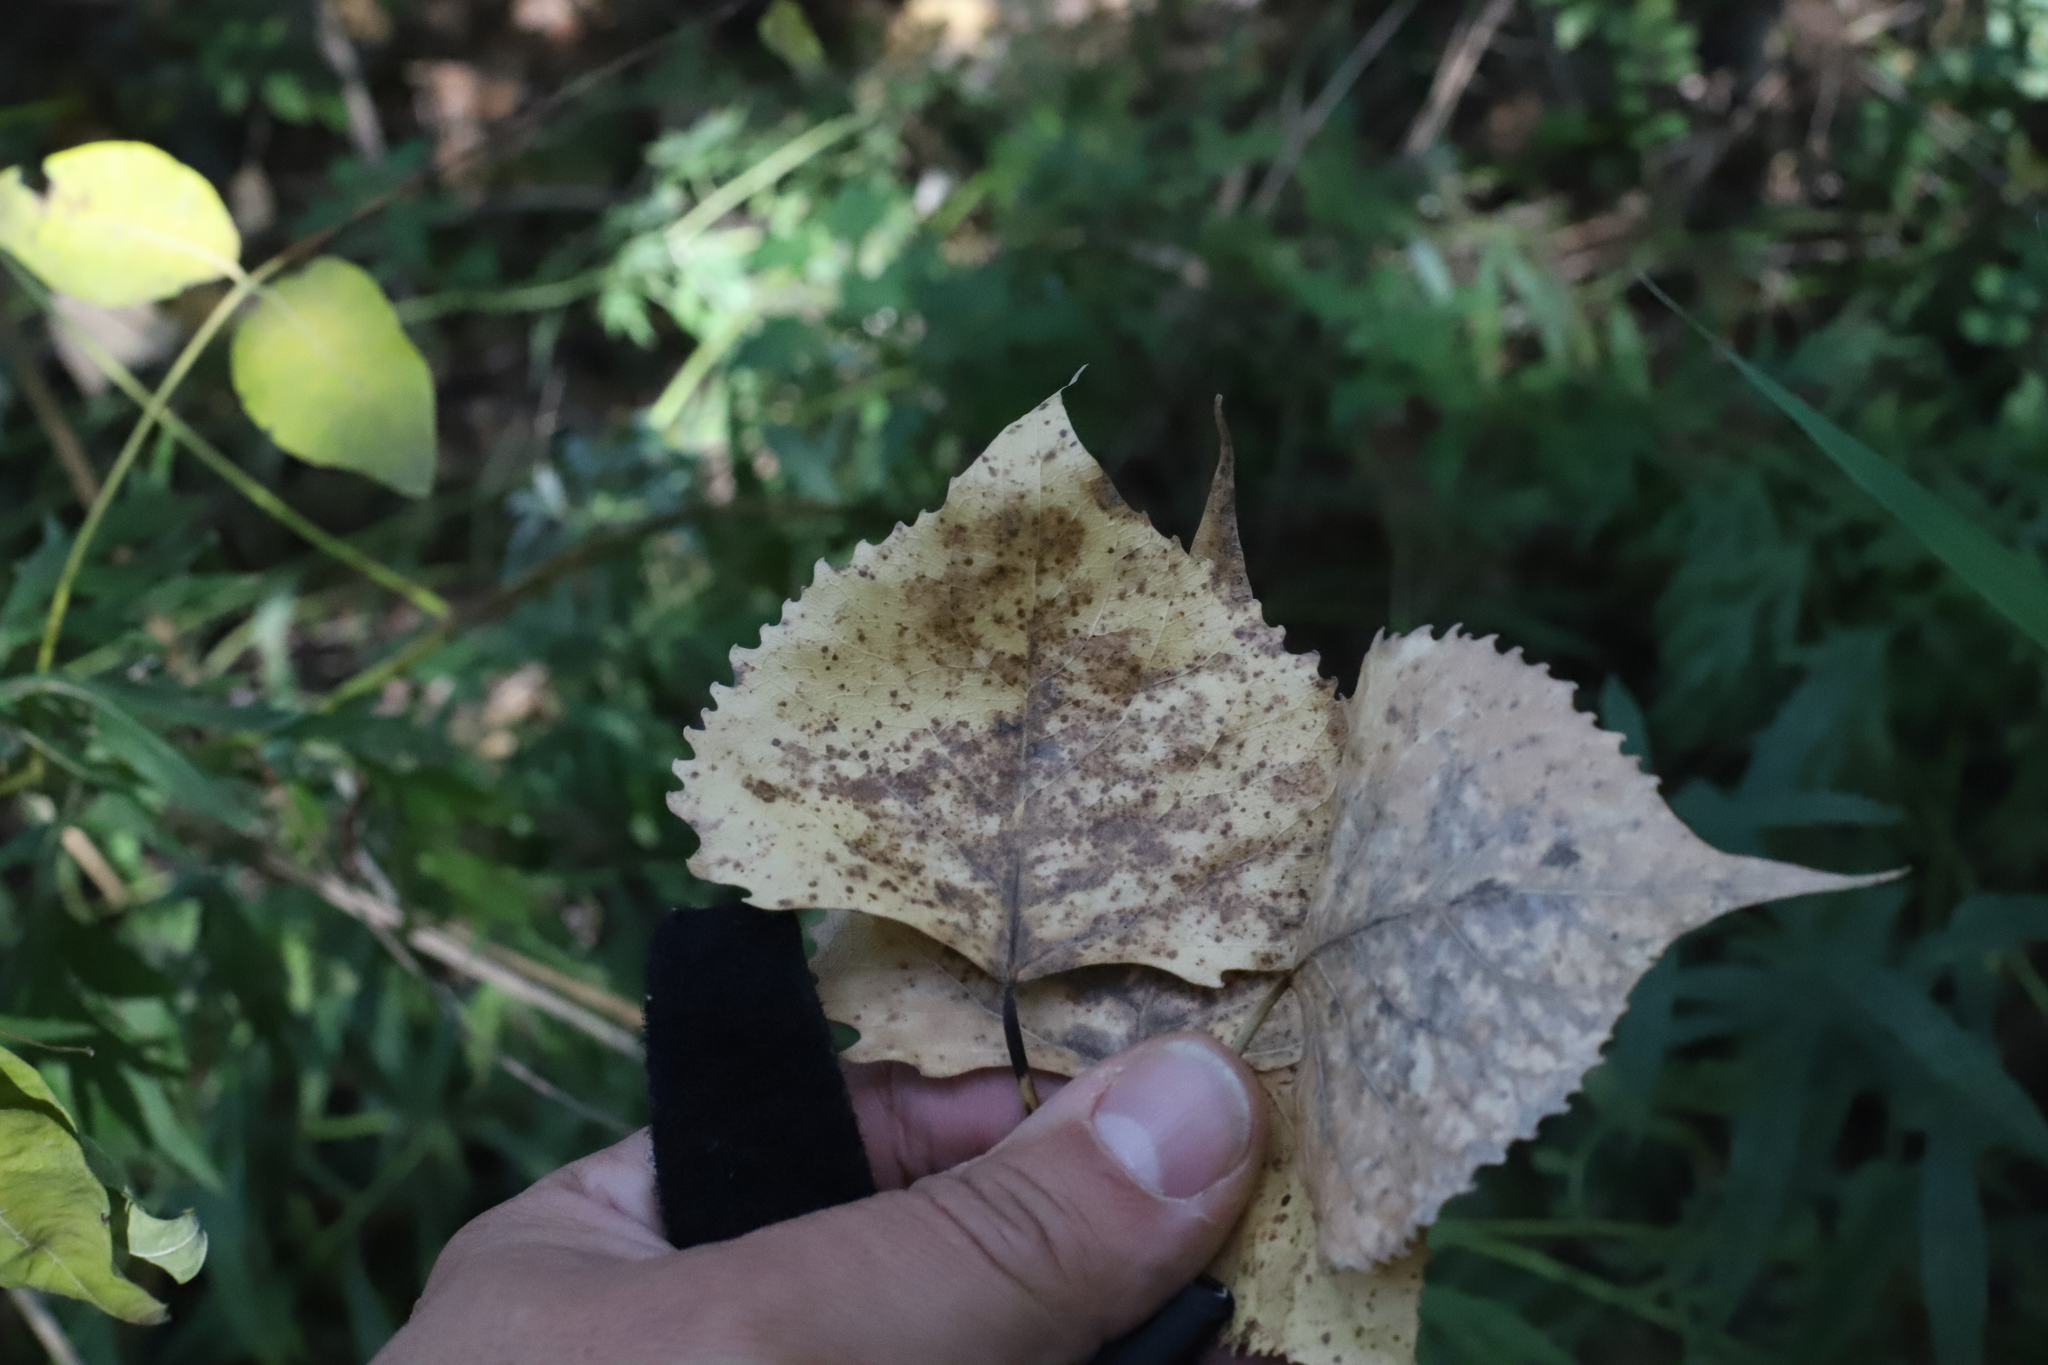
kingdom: Plantae
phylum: Tracheophyta
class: Magnoliopsida
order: Malpighiales
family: Salicaceae
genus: Populus
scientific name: Populus deltoides
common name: Eastern cottonwood
